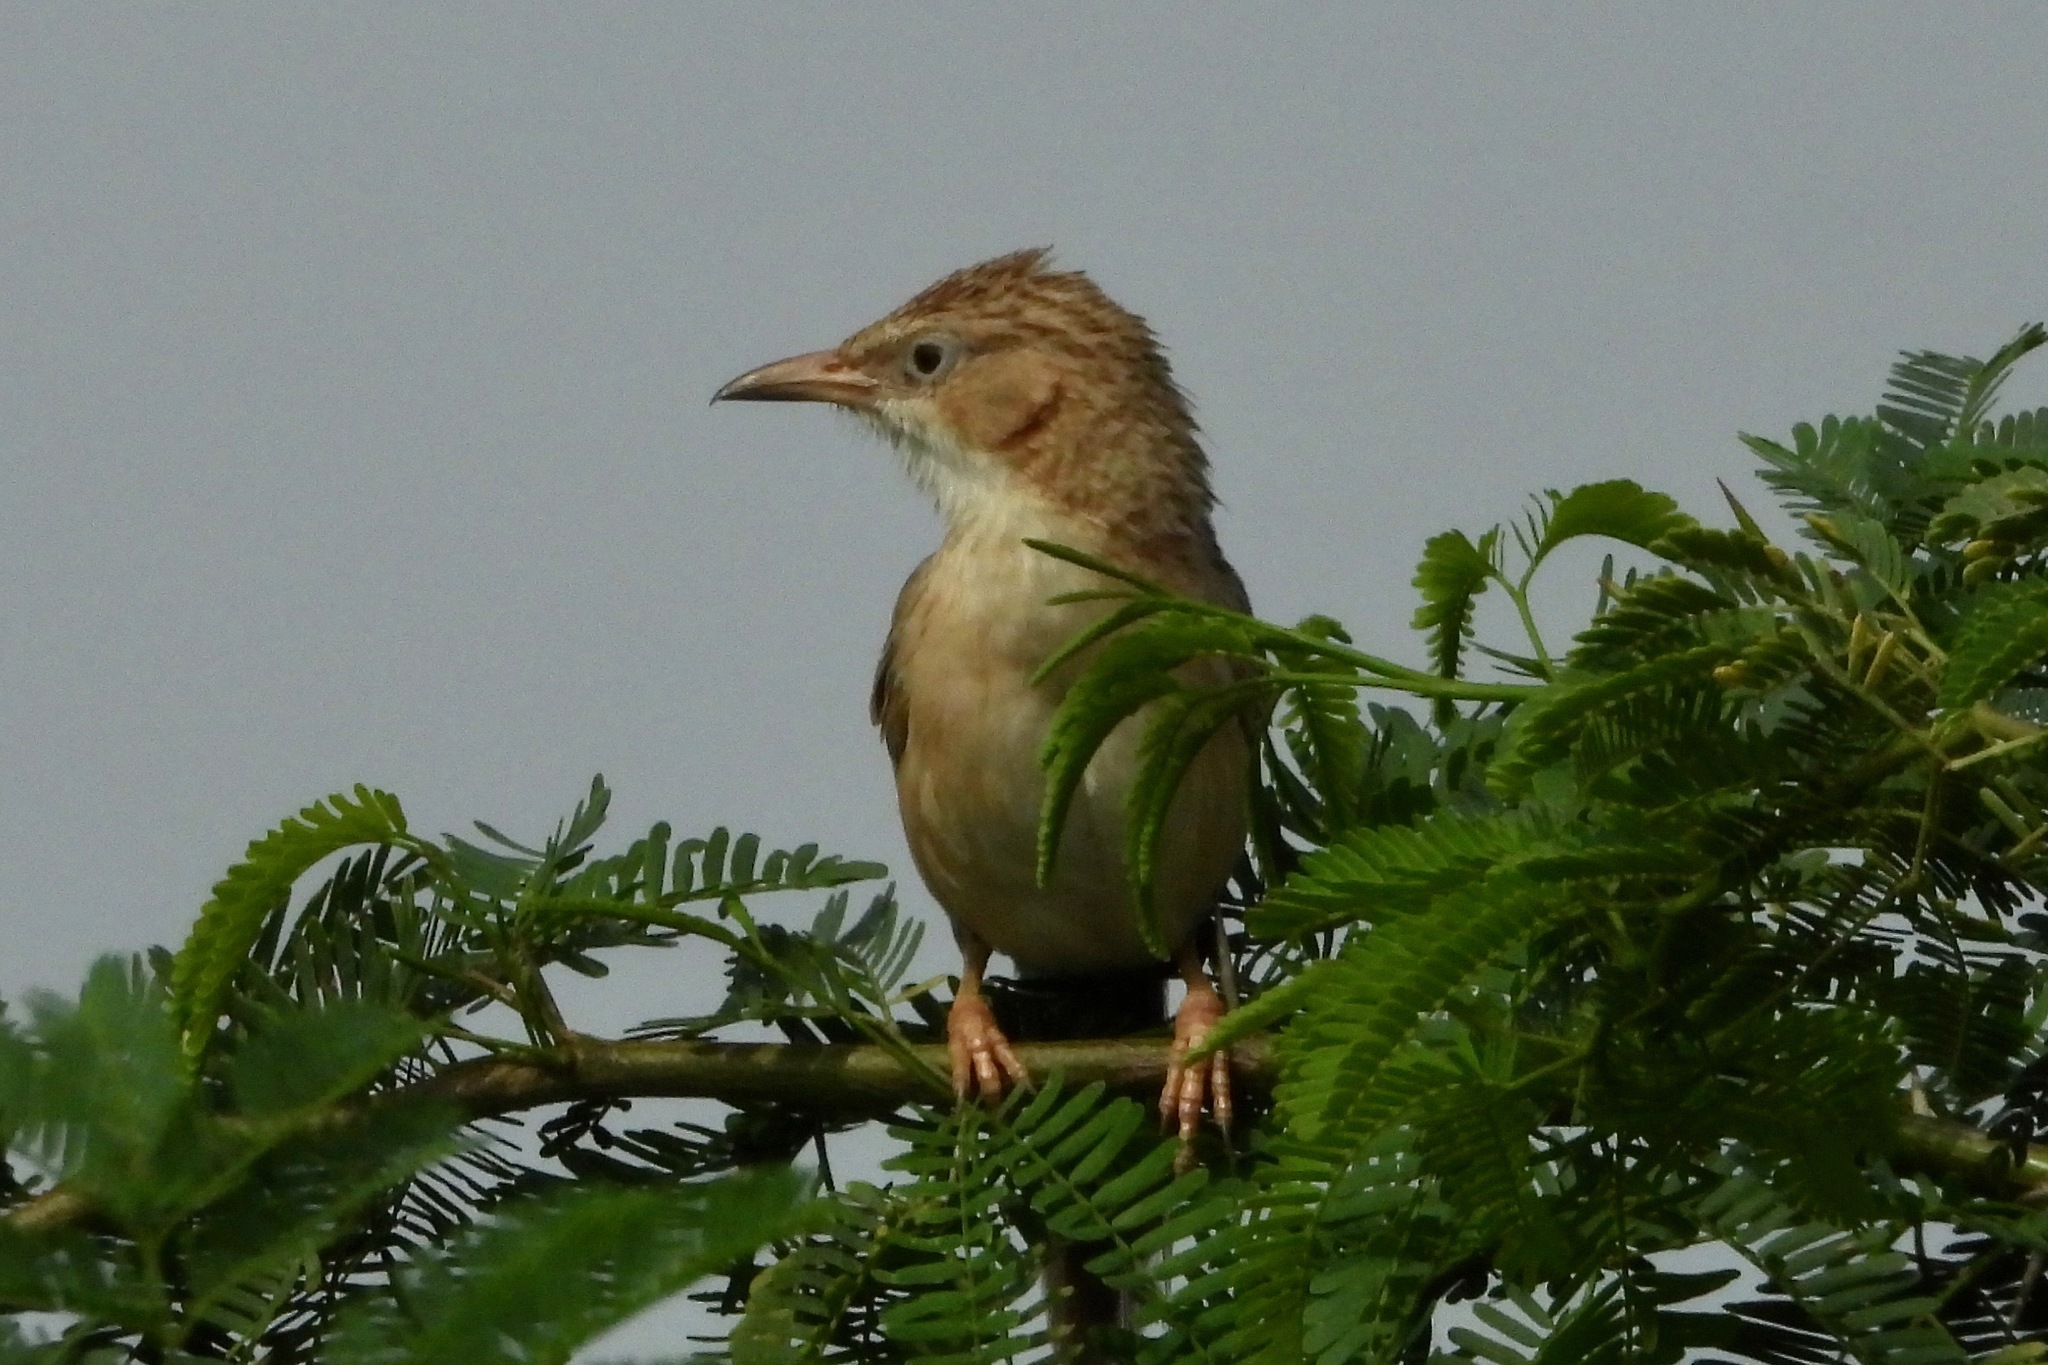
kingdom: Animalia
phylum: Chordata
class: Aves
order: Passeriformes
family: Leiothrichidae
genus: Turdoides
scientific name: Turdoides caudata
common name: Common babbler
